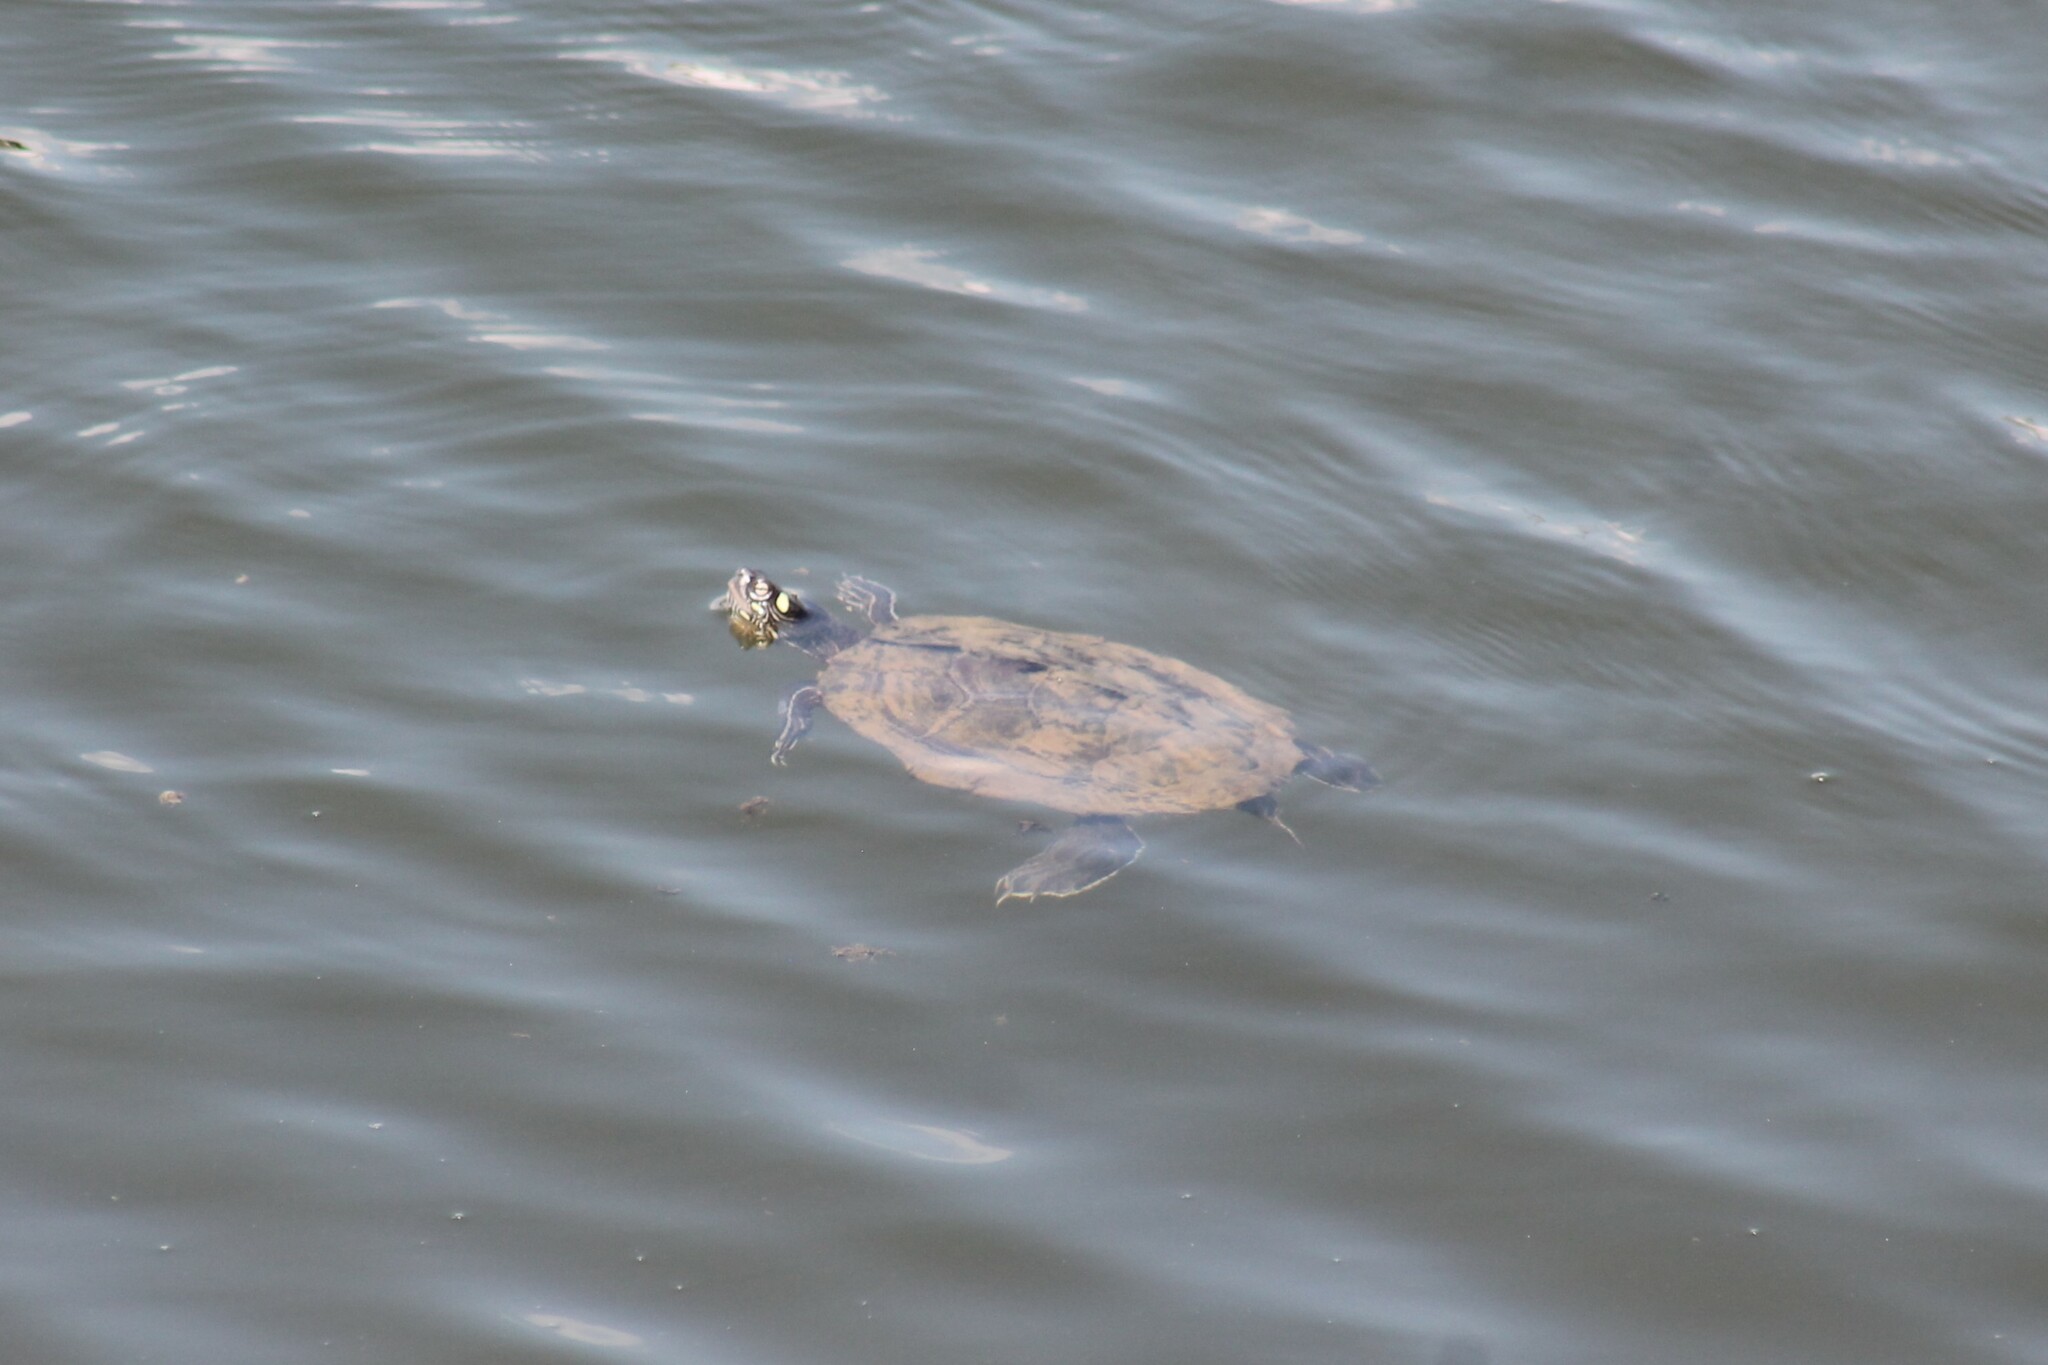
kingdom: Animalia
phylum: Chordata
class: Testudines
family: Emydidae
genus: Graptemys
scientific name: Graptemys ouachitensis
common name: Ouachita map turtle
